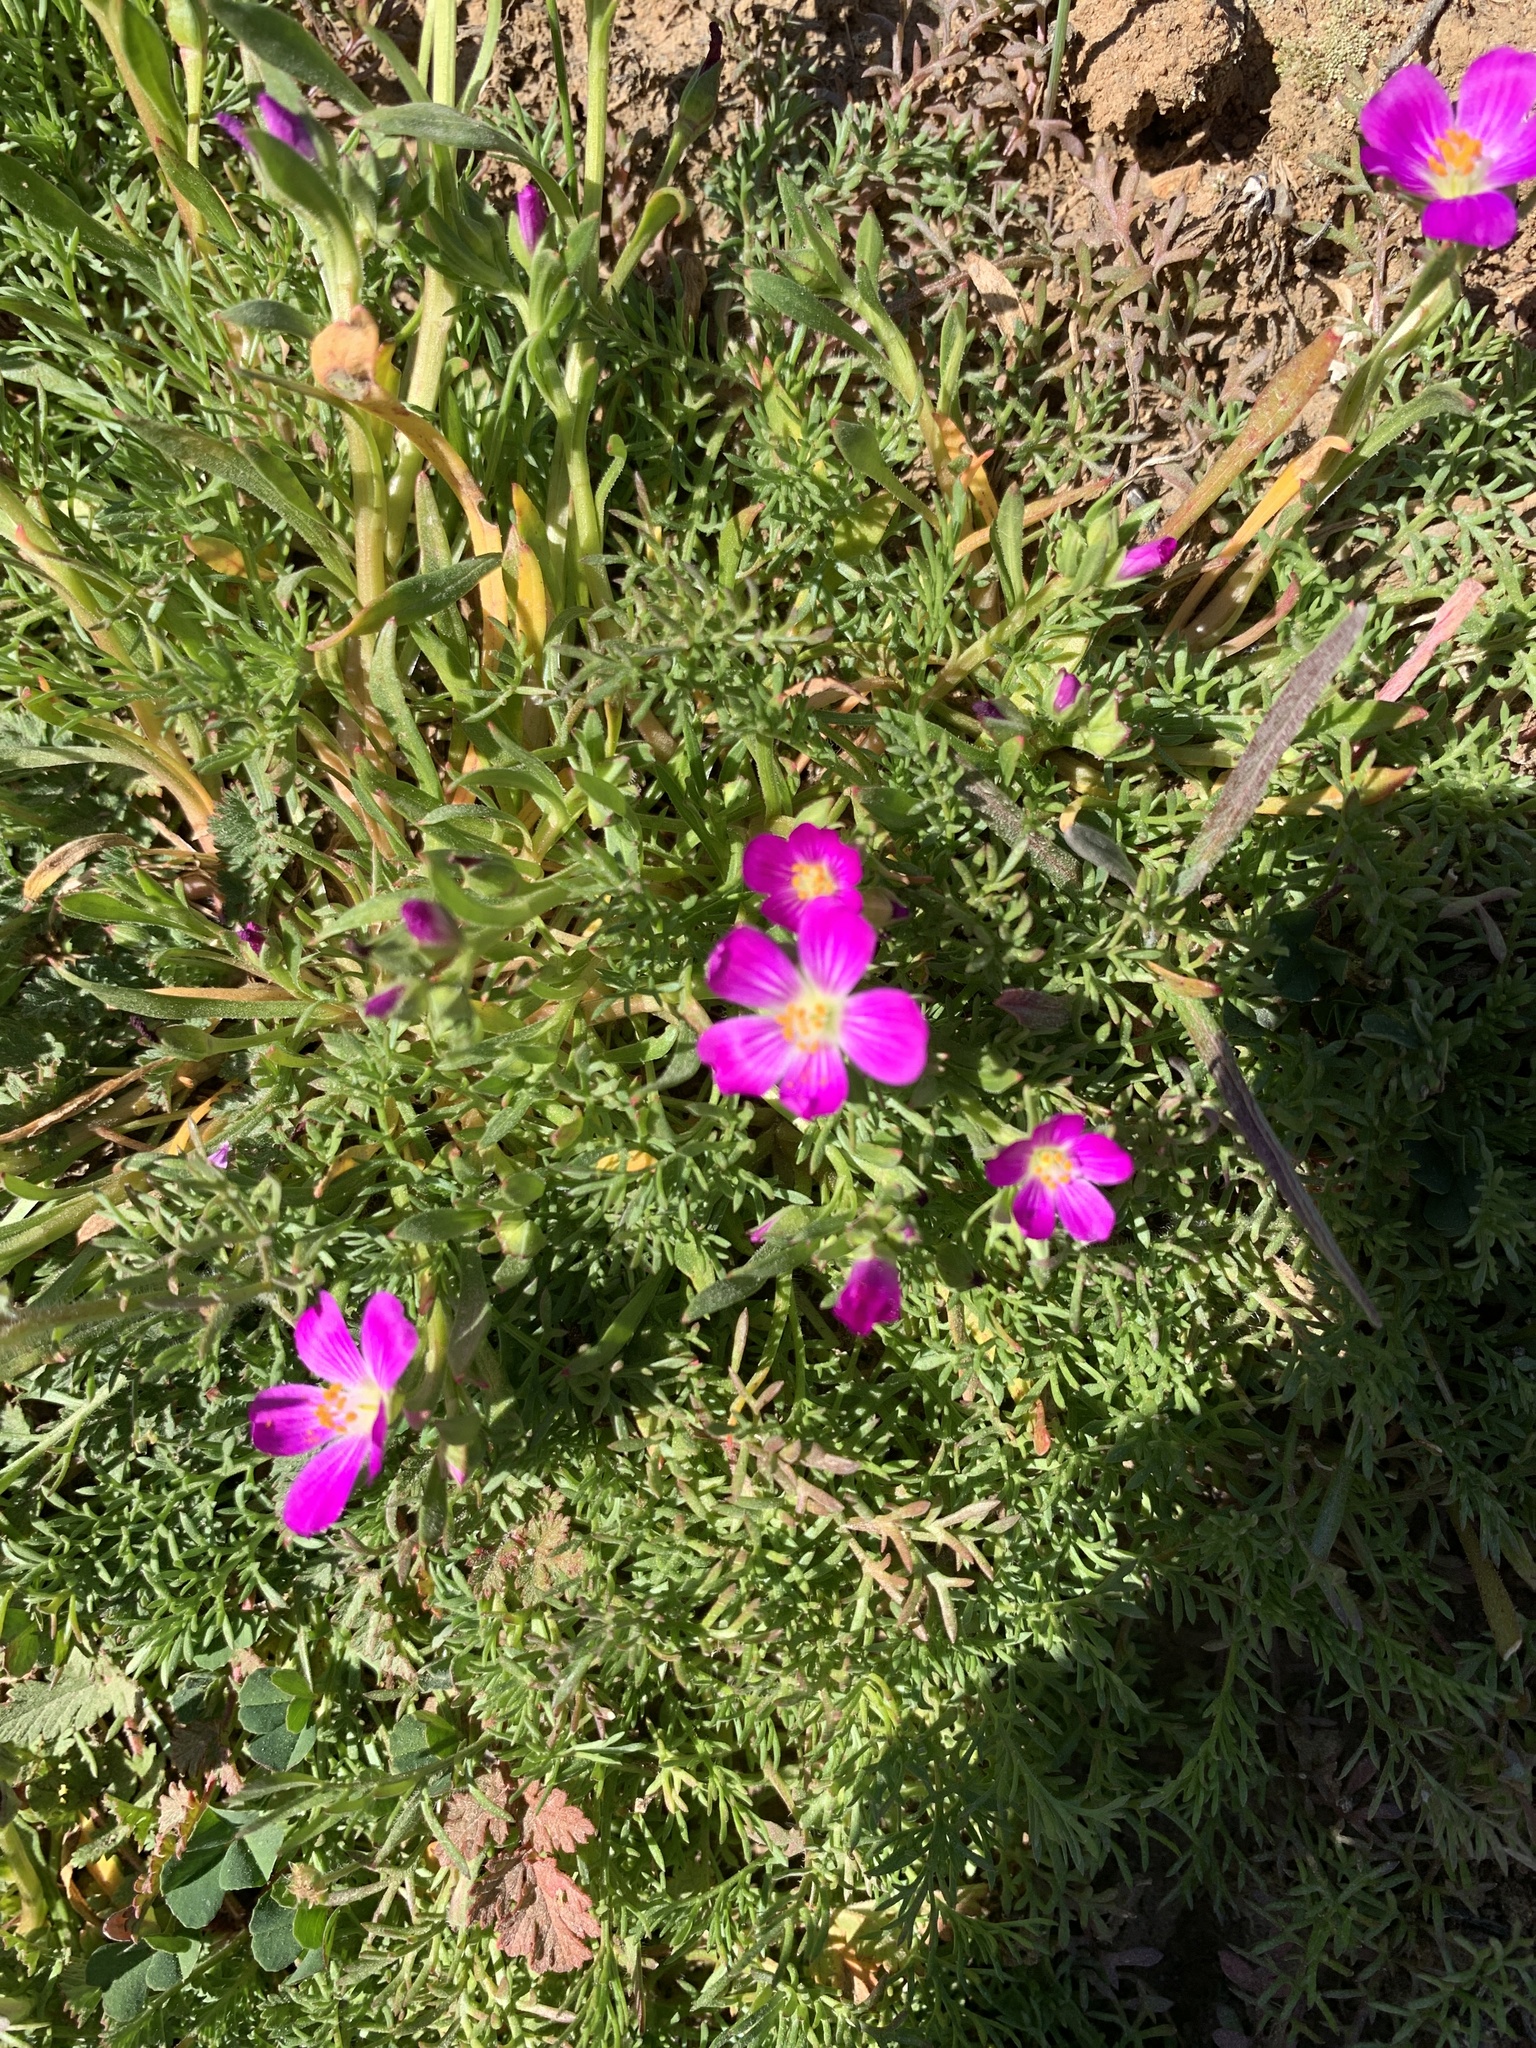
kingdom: Plantae
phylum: Tracheophyta
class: Magnoliopsida
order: Caryophyllales
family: Montiaceae
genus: Calandrinia
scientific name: Calandrinia menziesii
